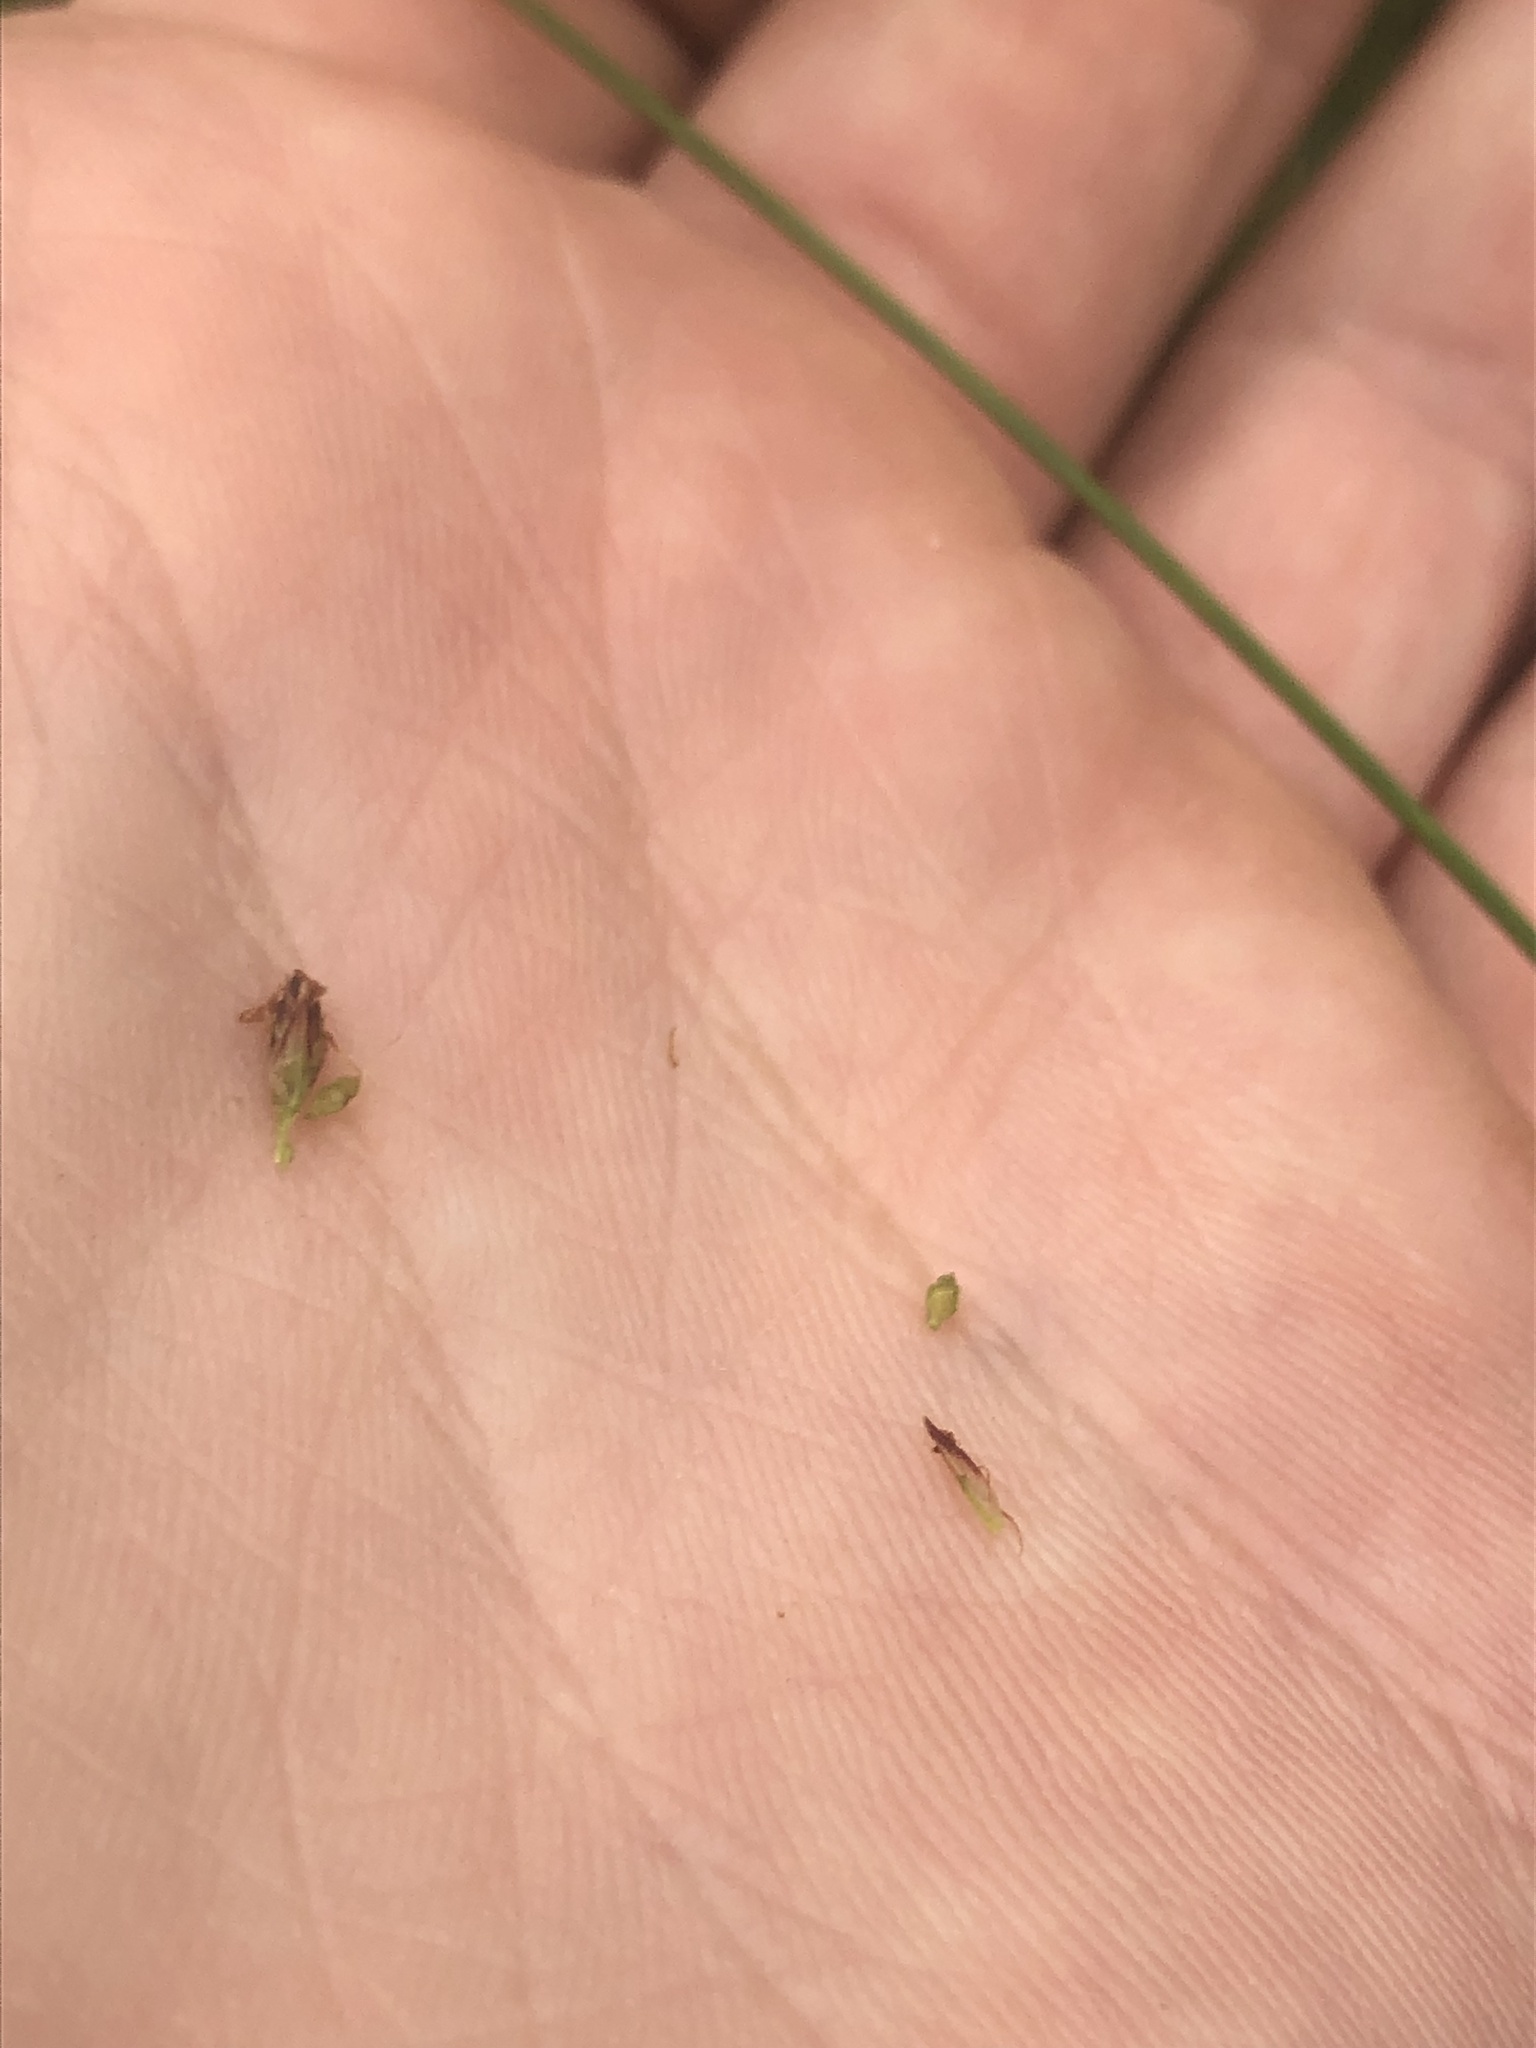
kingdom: Plantae
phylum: Tracheophyta
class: Liliopsida
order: Poales
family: Cyperaceae
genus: Eleocharis
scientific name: Eleocharis quinqueflora
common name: Few-flowered spike-rush
